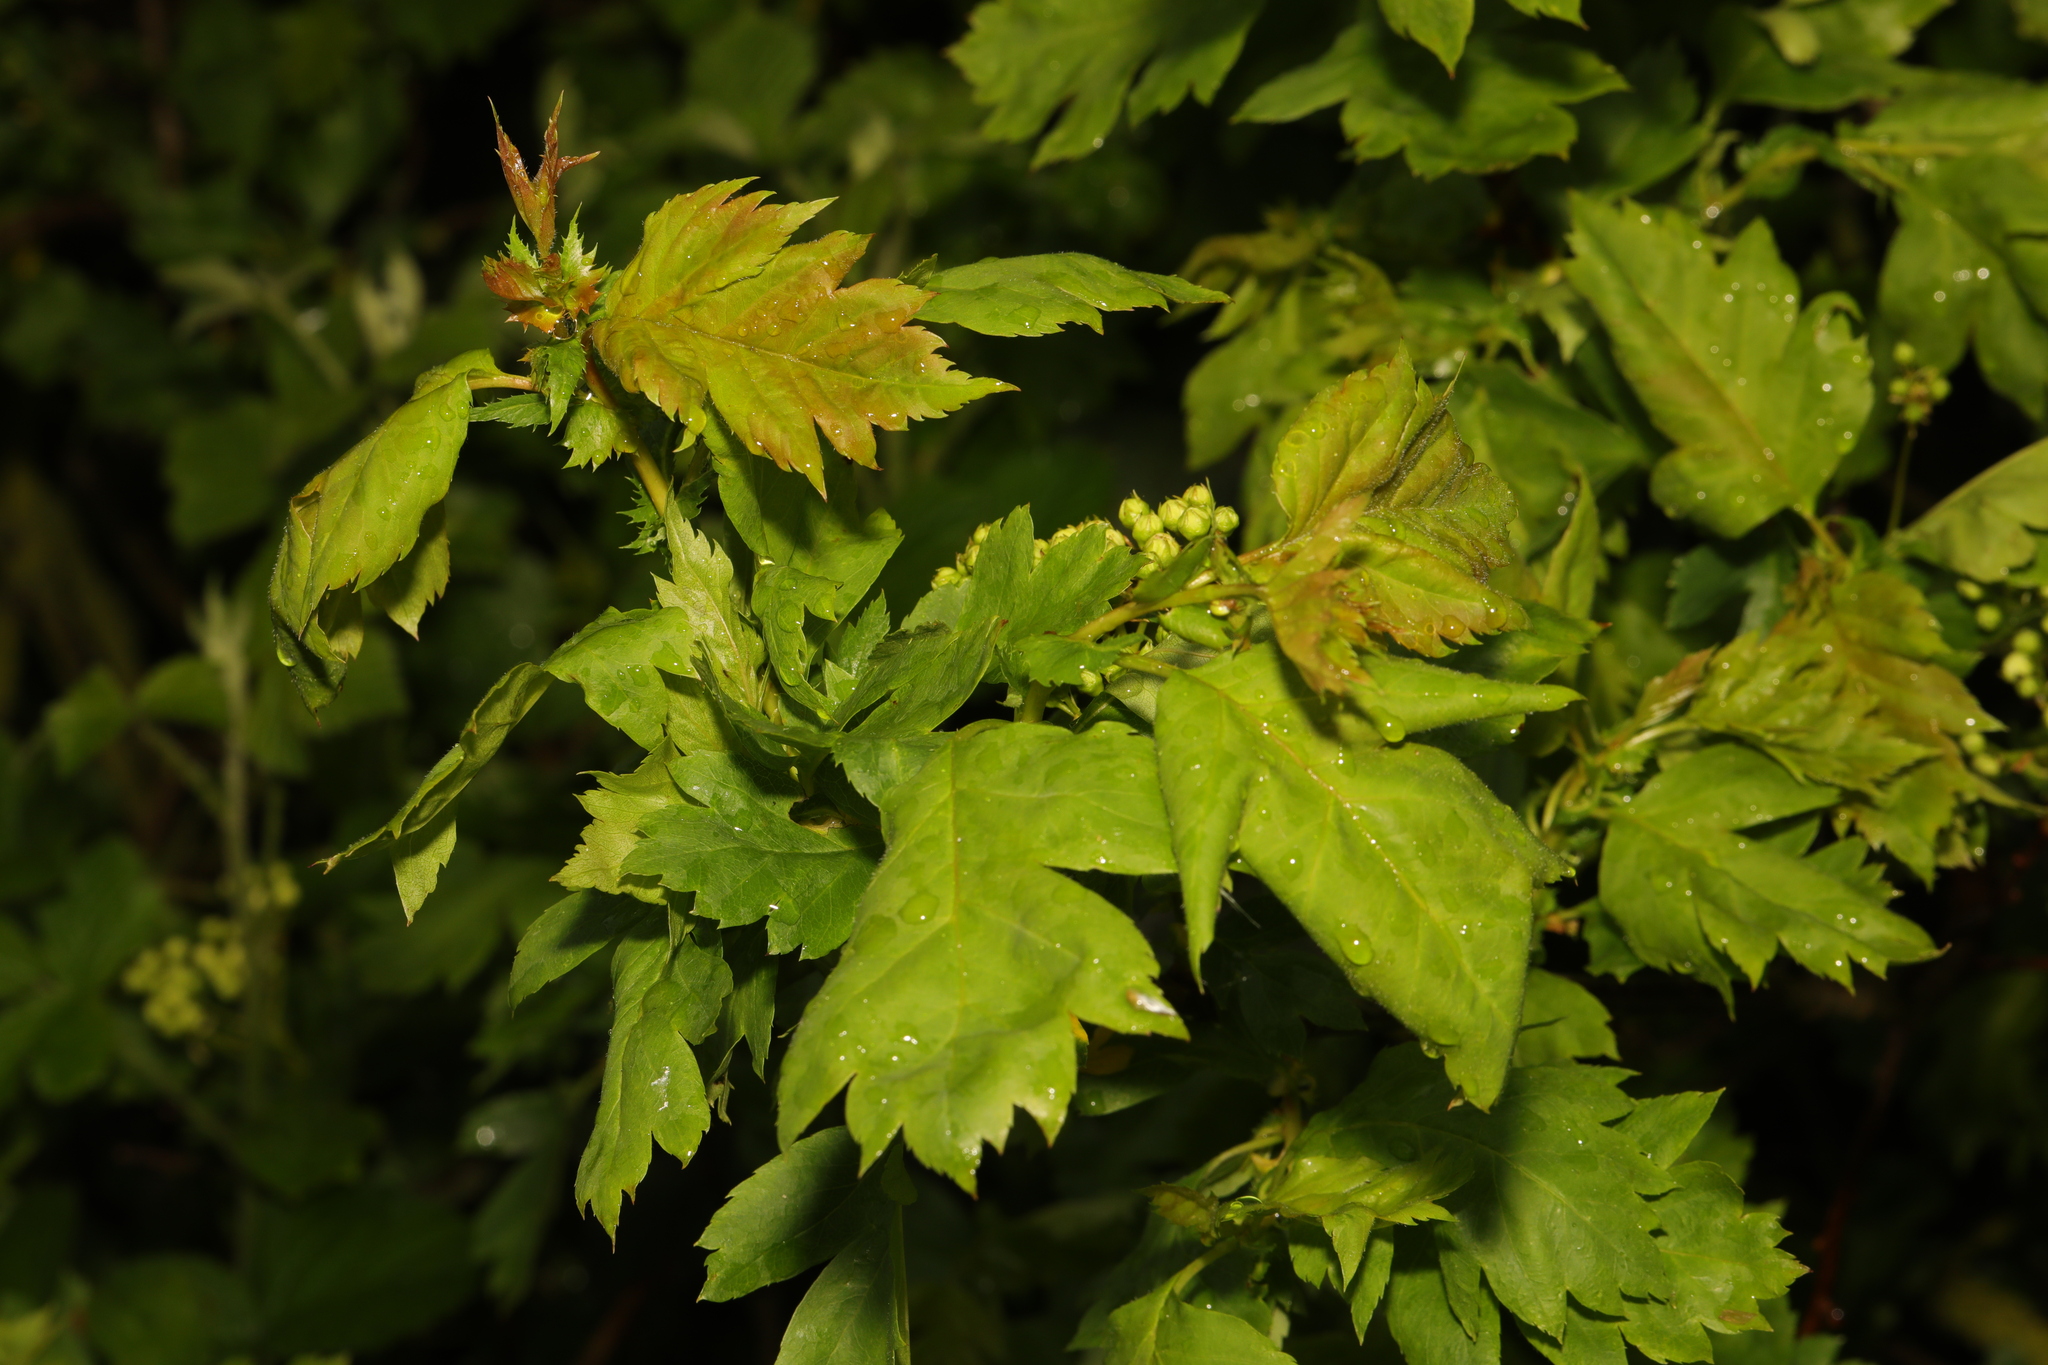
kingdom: Plantae
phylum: Tracheophyta
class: Magnoliopsida
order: Rosales
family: Rosaceae
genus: Crataegus
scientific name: Crataegus monogyna
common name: Hawthorn
